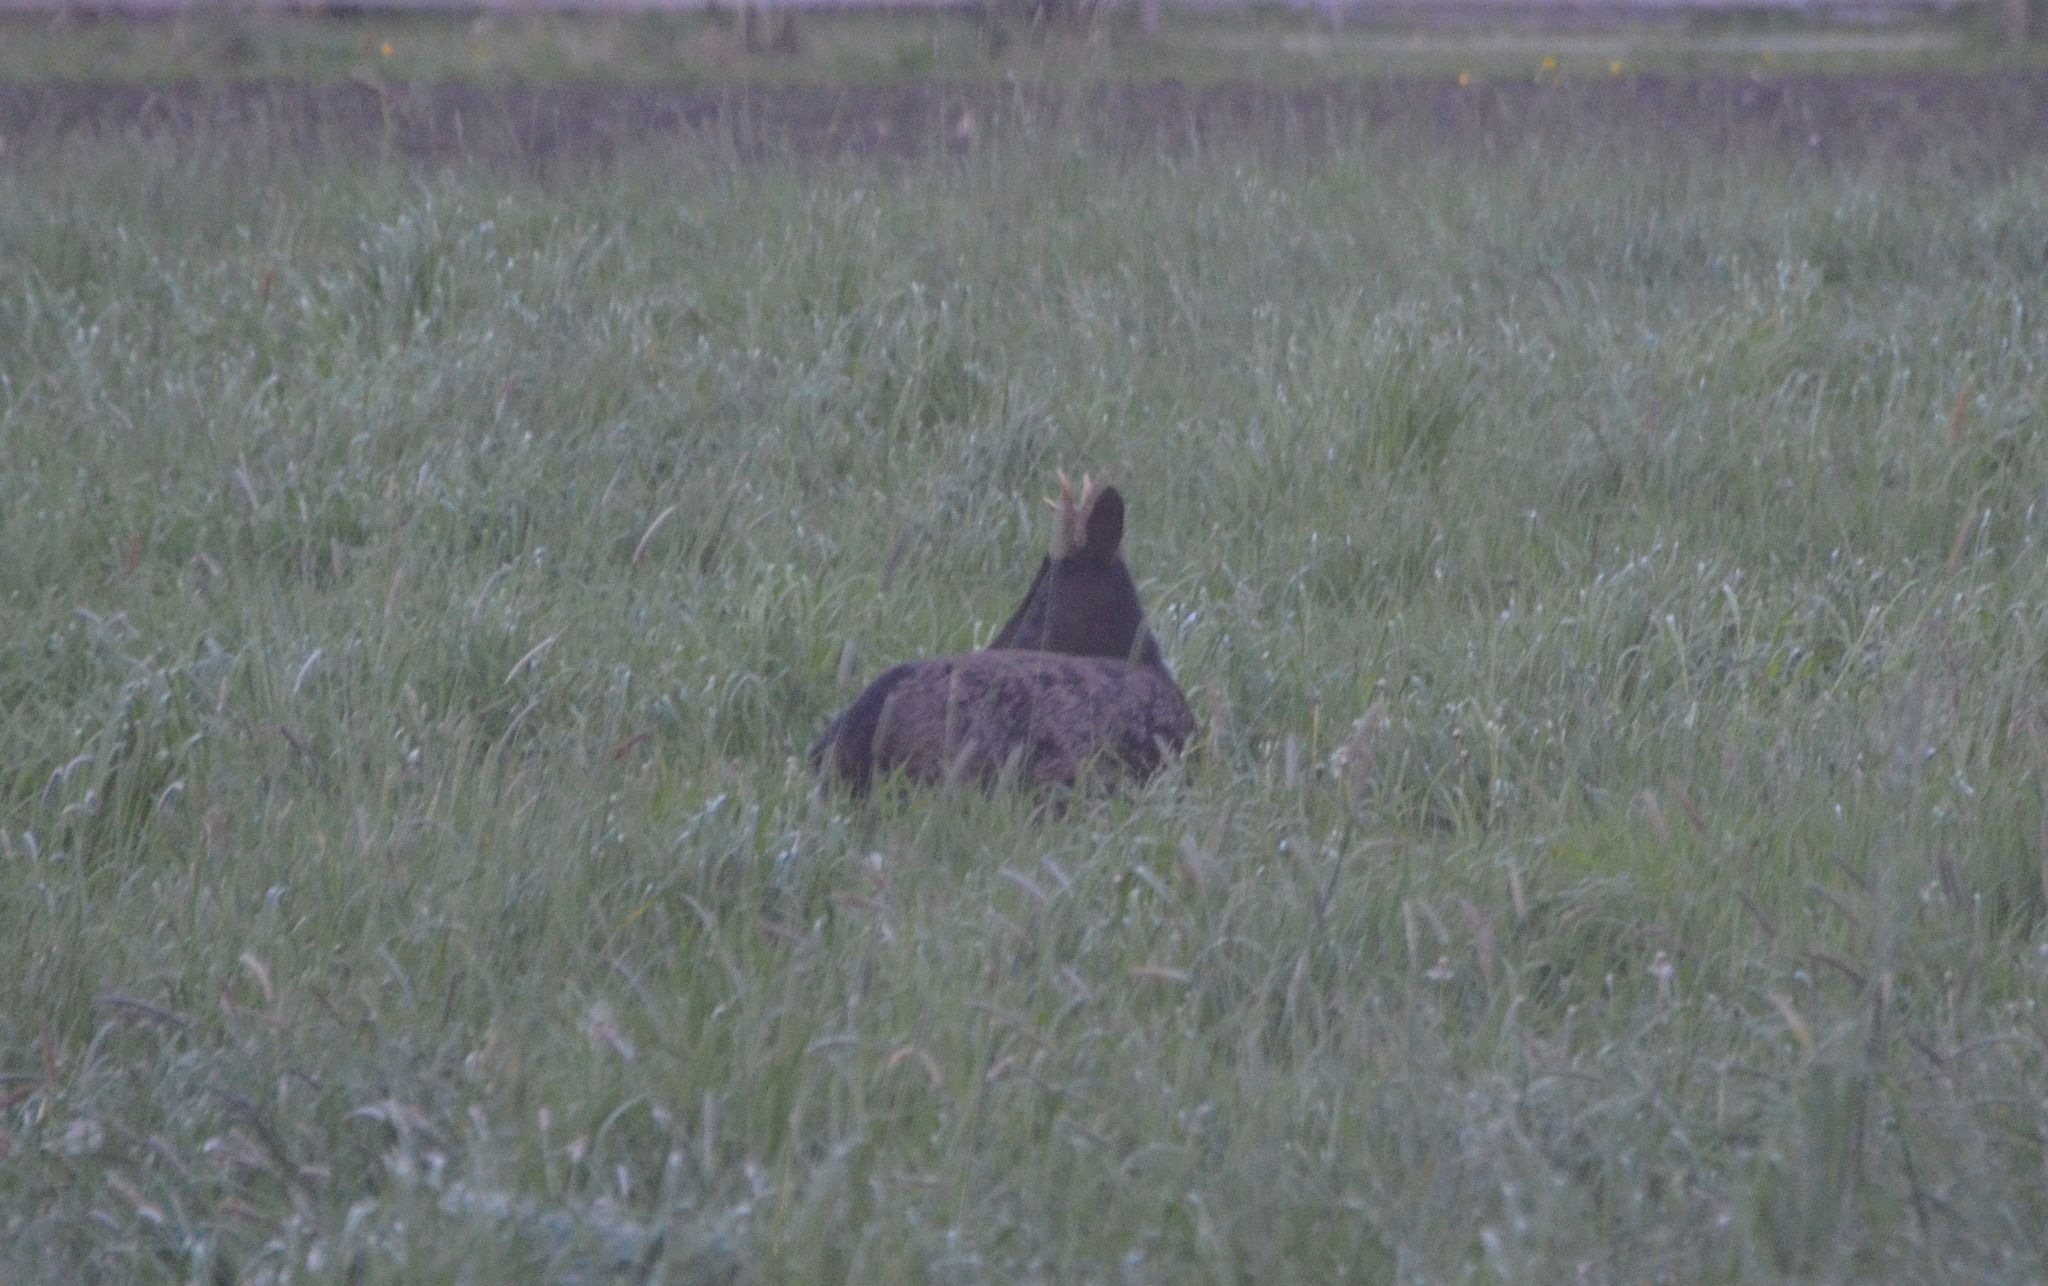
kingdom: Animalia
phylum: Chordata
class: Mammalia
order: Artiodactyla
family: Cervidae
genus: Capreolus
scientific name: Capreolus capreolus
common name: Western roe deer
